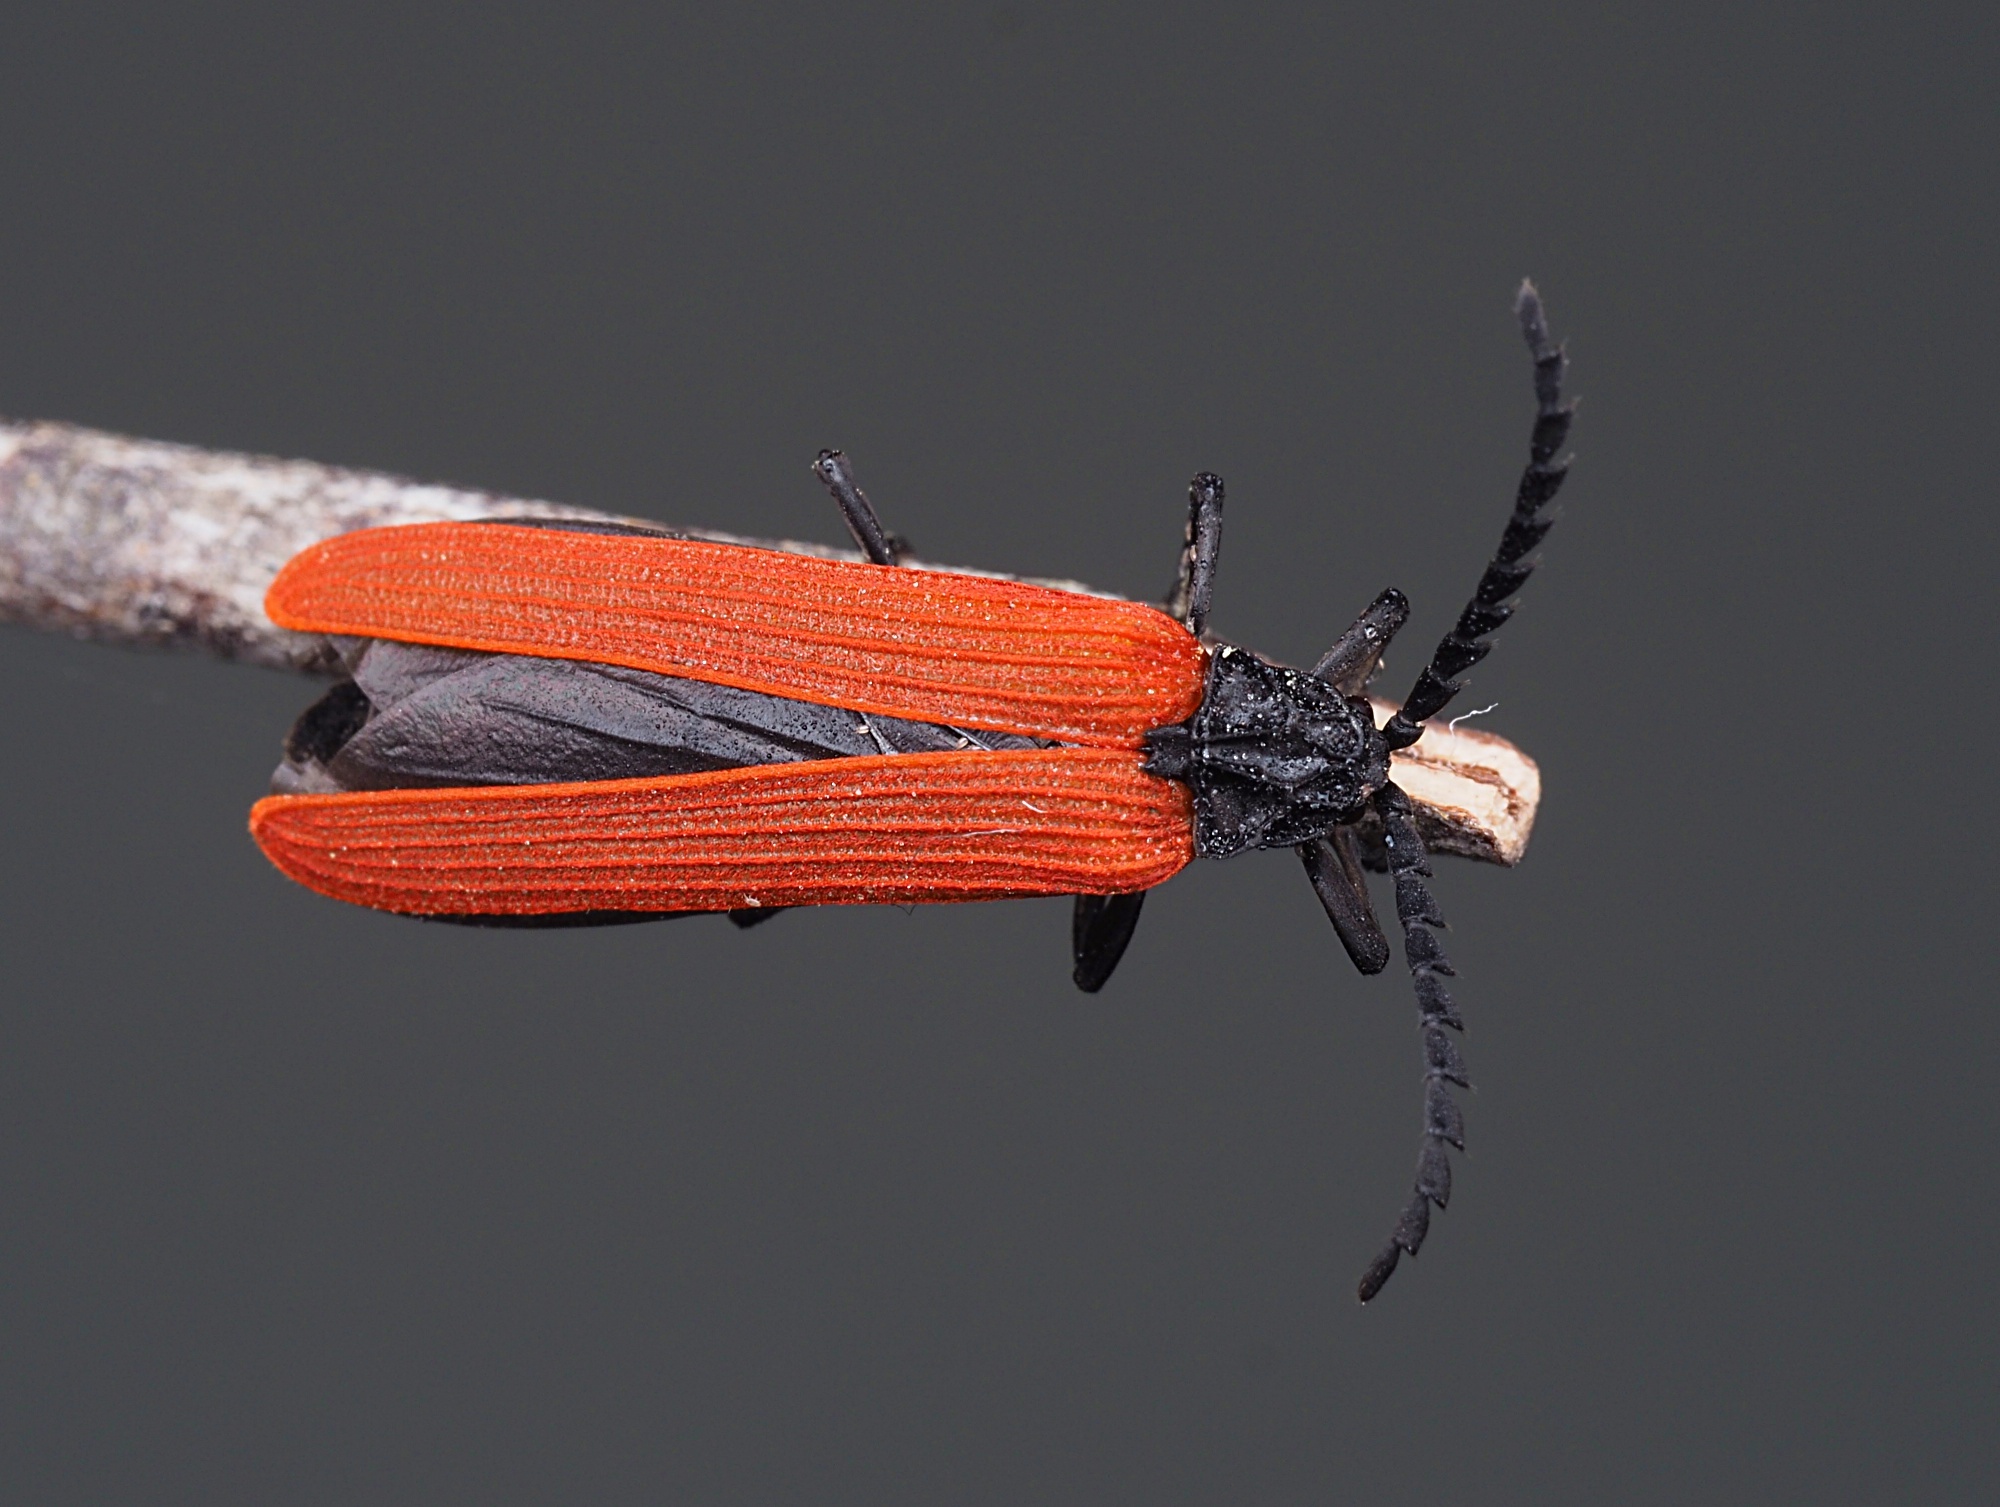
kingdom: Animalia
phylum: Arthropoda
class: Insecta
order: Coleoptera
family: Lycidae
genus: Porrostoma
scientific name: Porrostoma rufipenne
